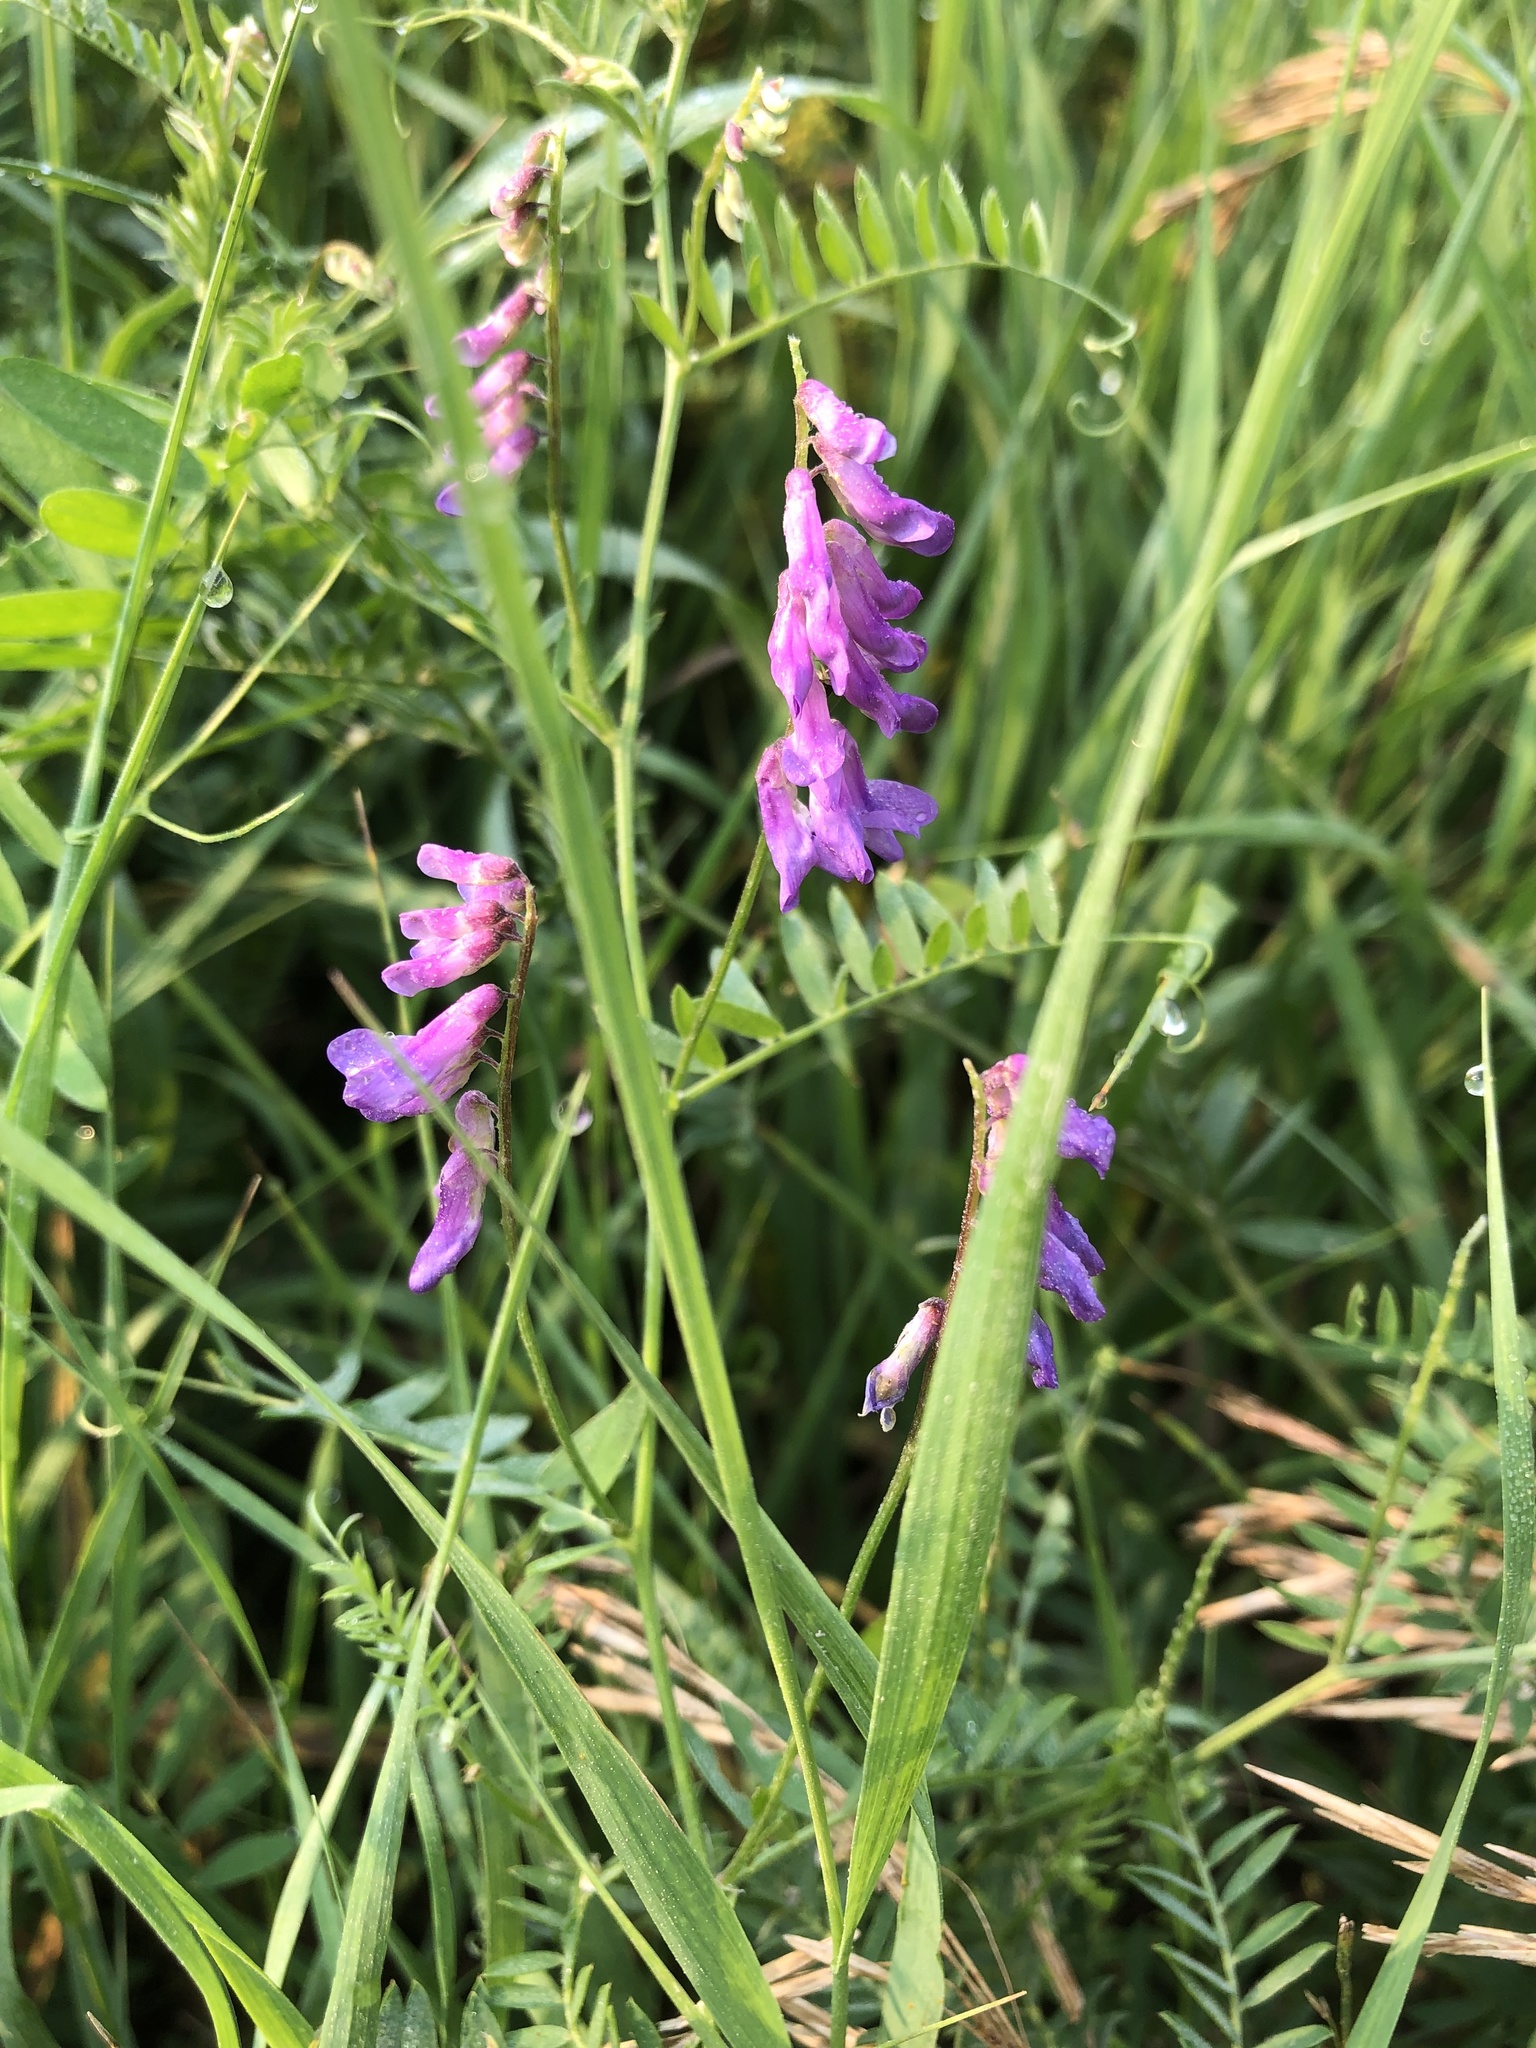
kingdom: Plantae
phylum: Tracheophyta
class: Magnoliopsida
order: Fabales
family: Fabaceae
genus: Vicia
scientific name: Vicia cracca
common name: Bird vetch
